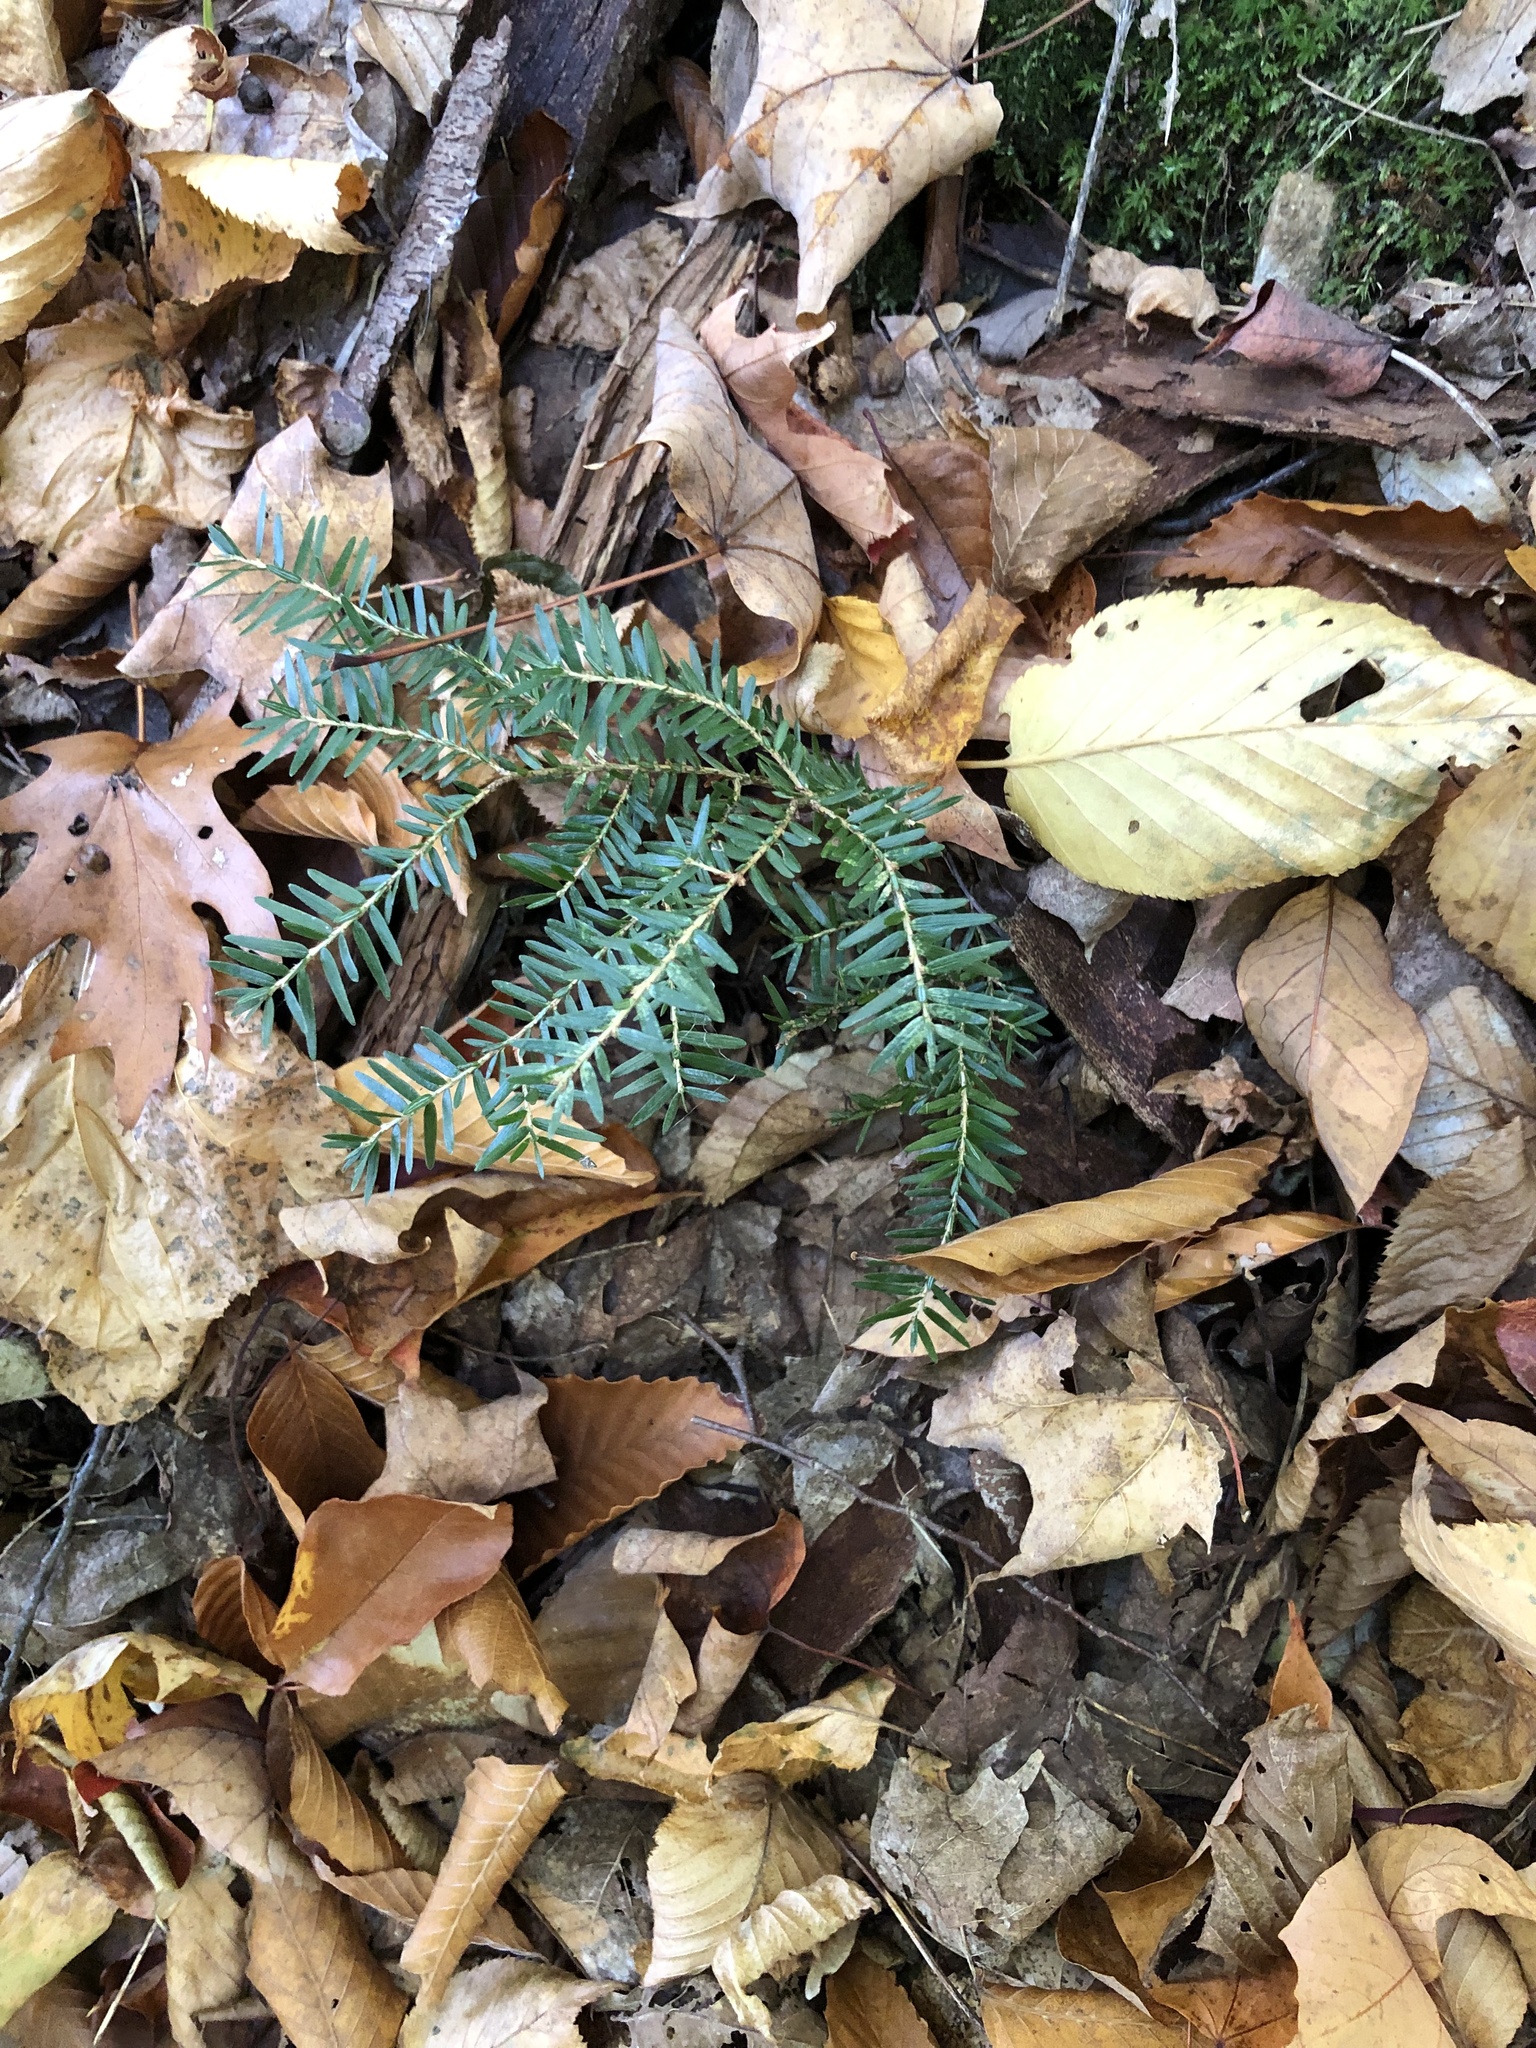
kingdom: Plantae
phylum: Tracheophyta
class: Pinopsida
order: Pinales
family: Pinaceae
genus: Tsuga
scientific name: Tsuga canadensis
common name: Eastern hemlock
